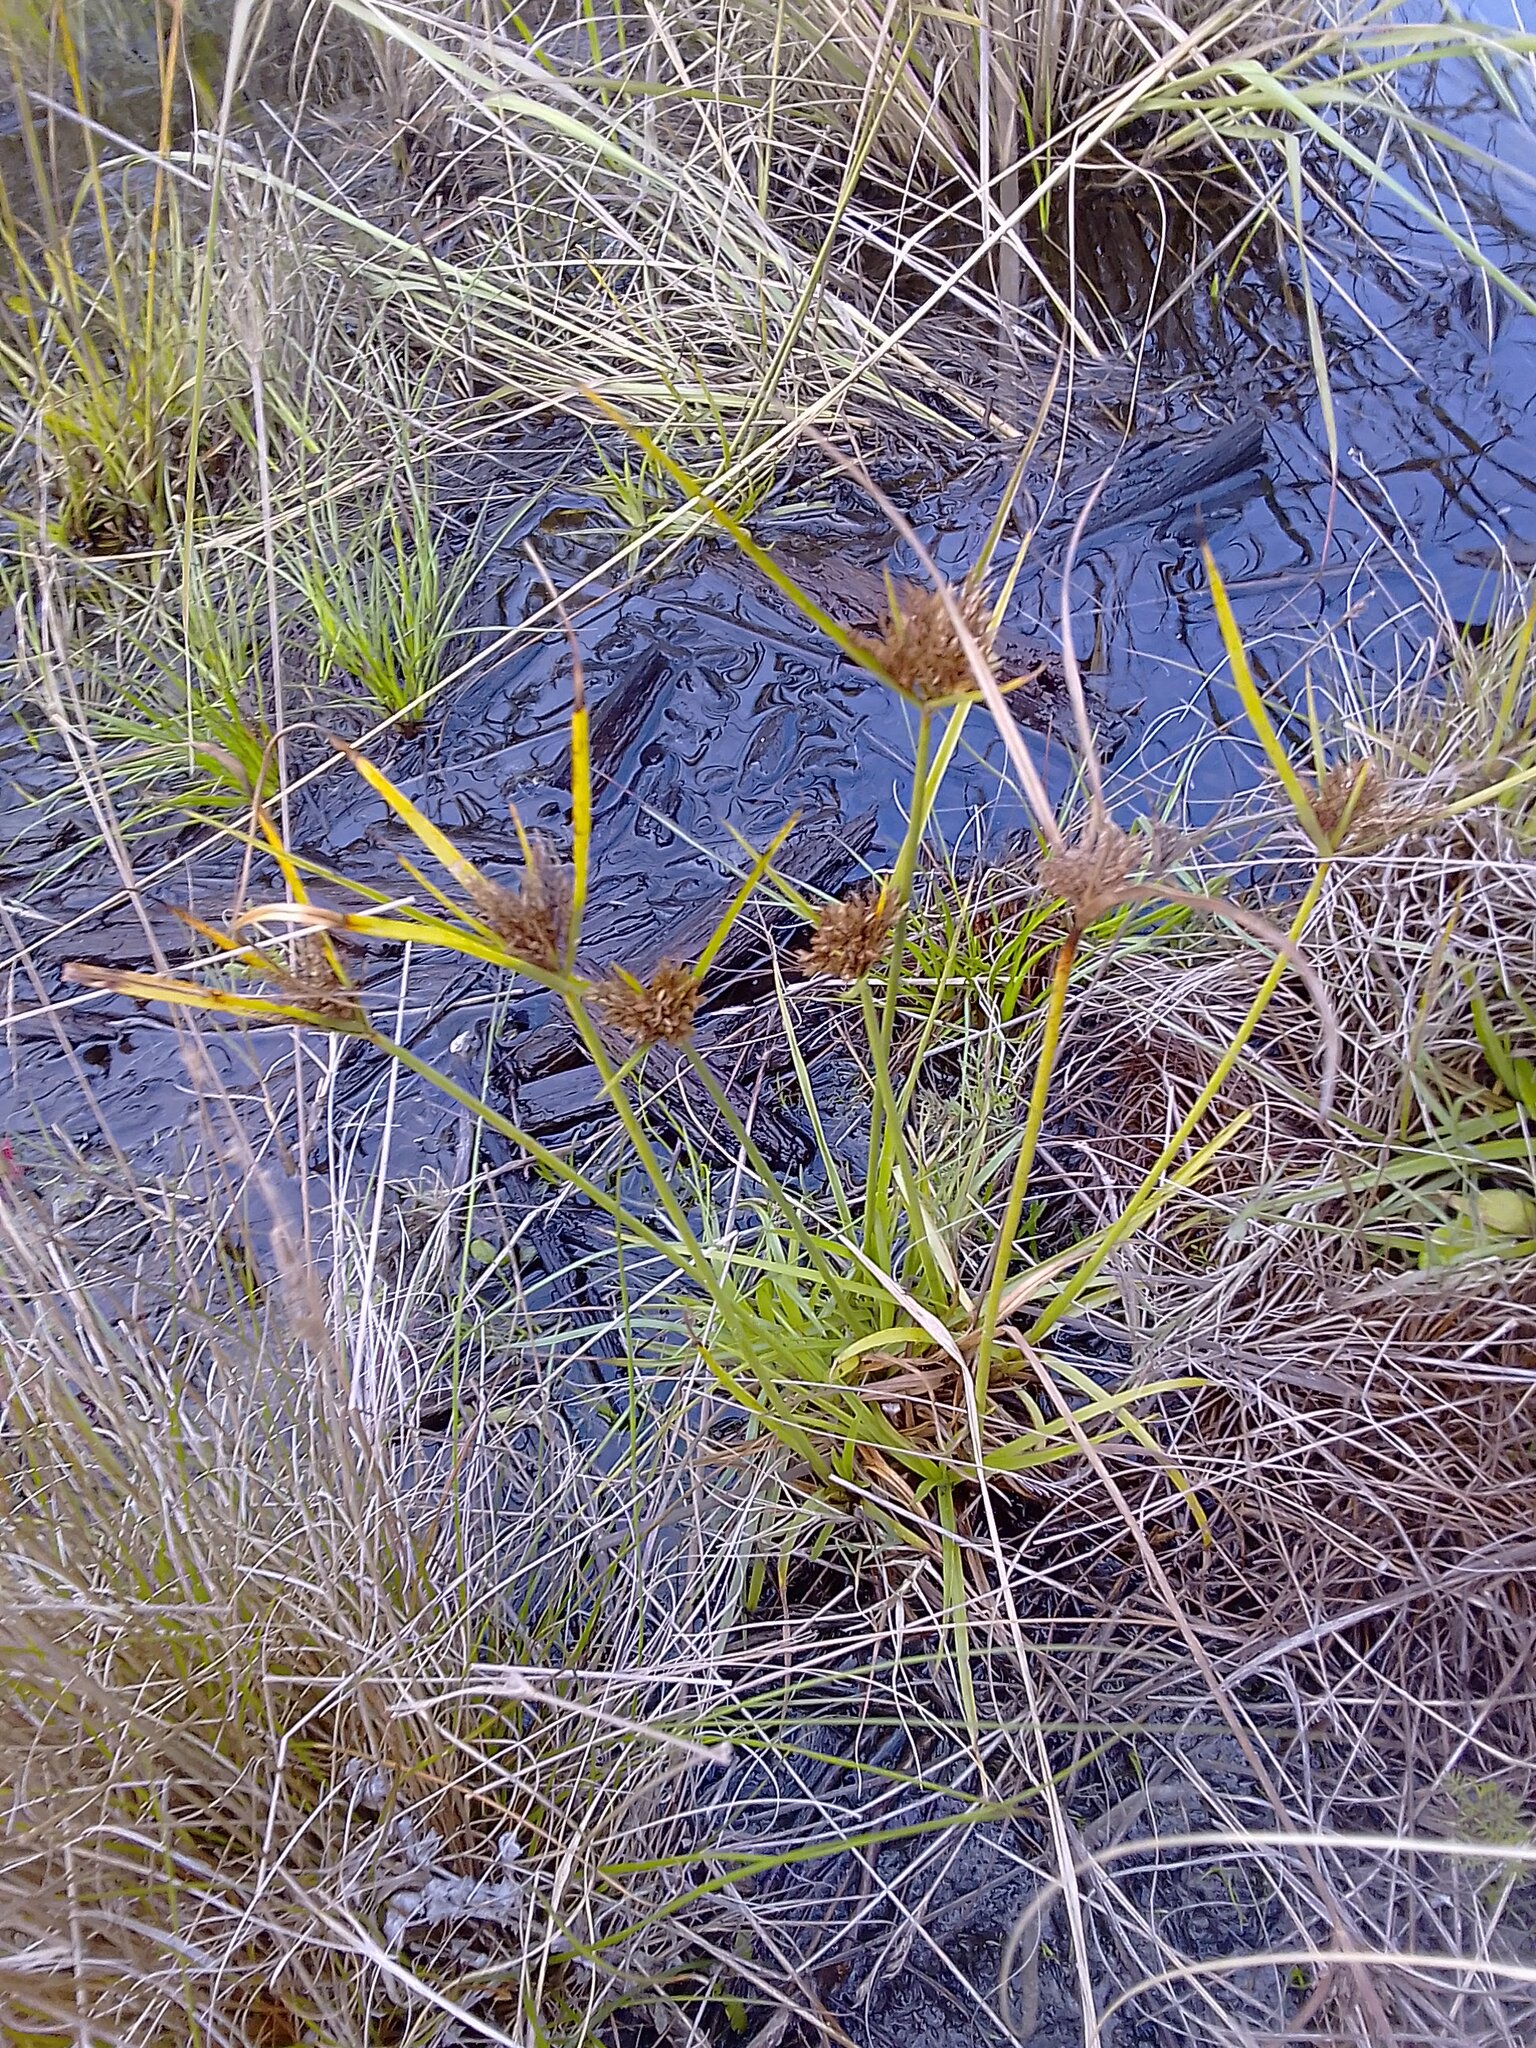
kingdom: Plantae
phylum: Tracheophyta
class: Liliopsida
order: Poales
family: Cyperaceae
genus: Cyperus
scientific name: Cyperus polystachyos
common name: Bunchy flat sedge
